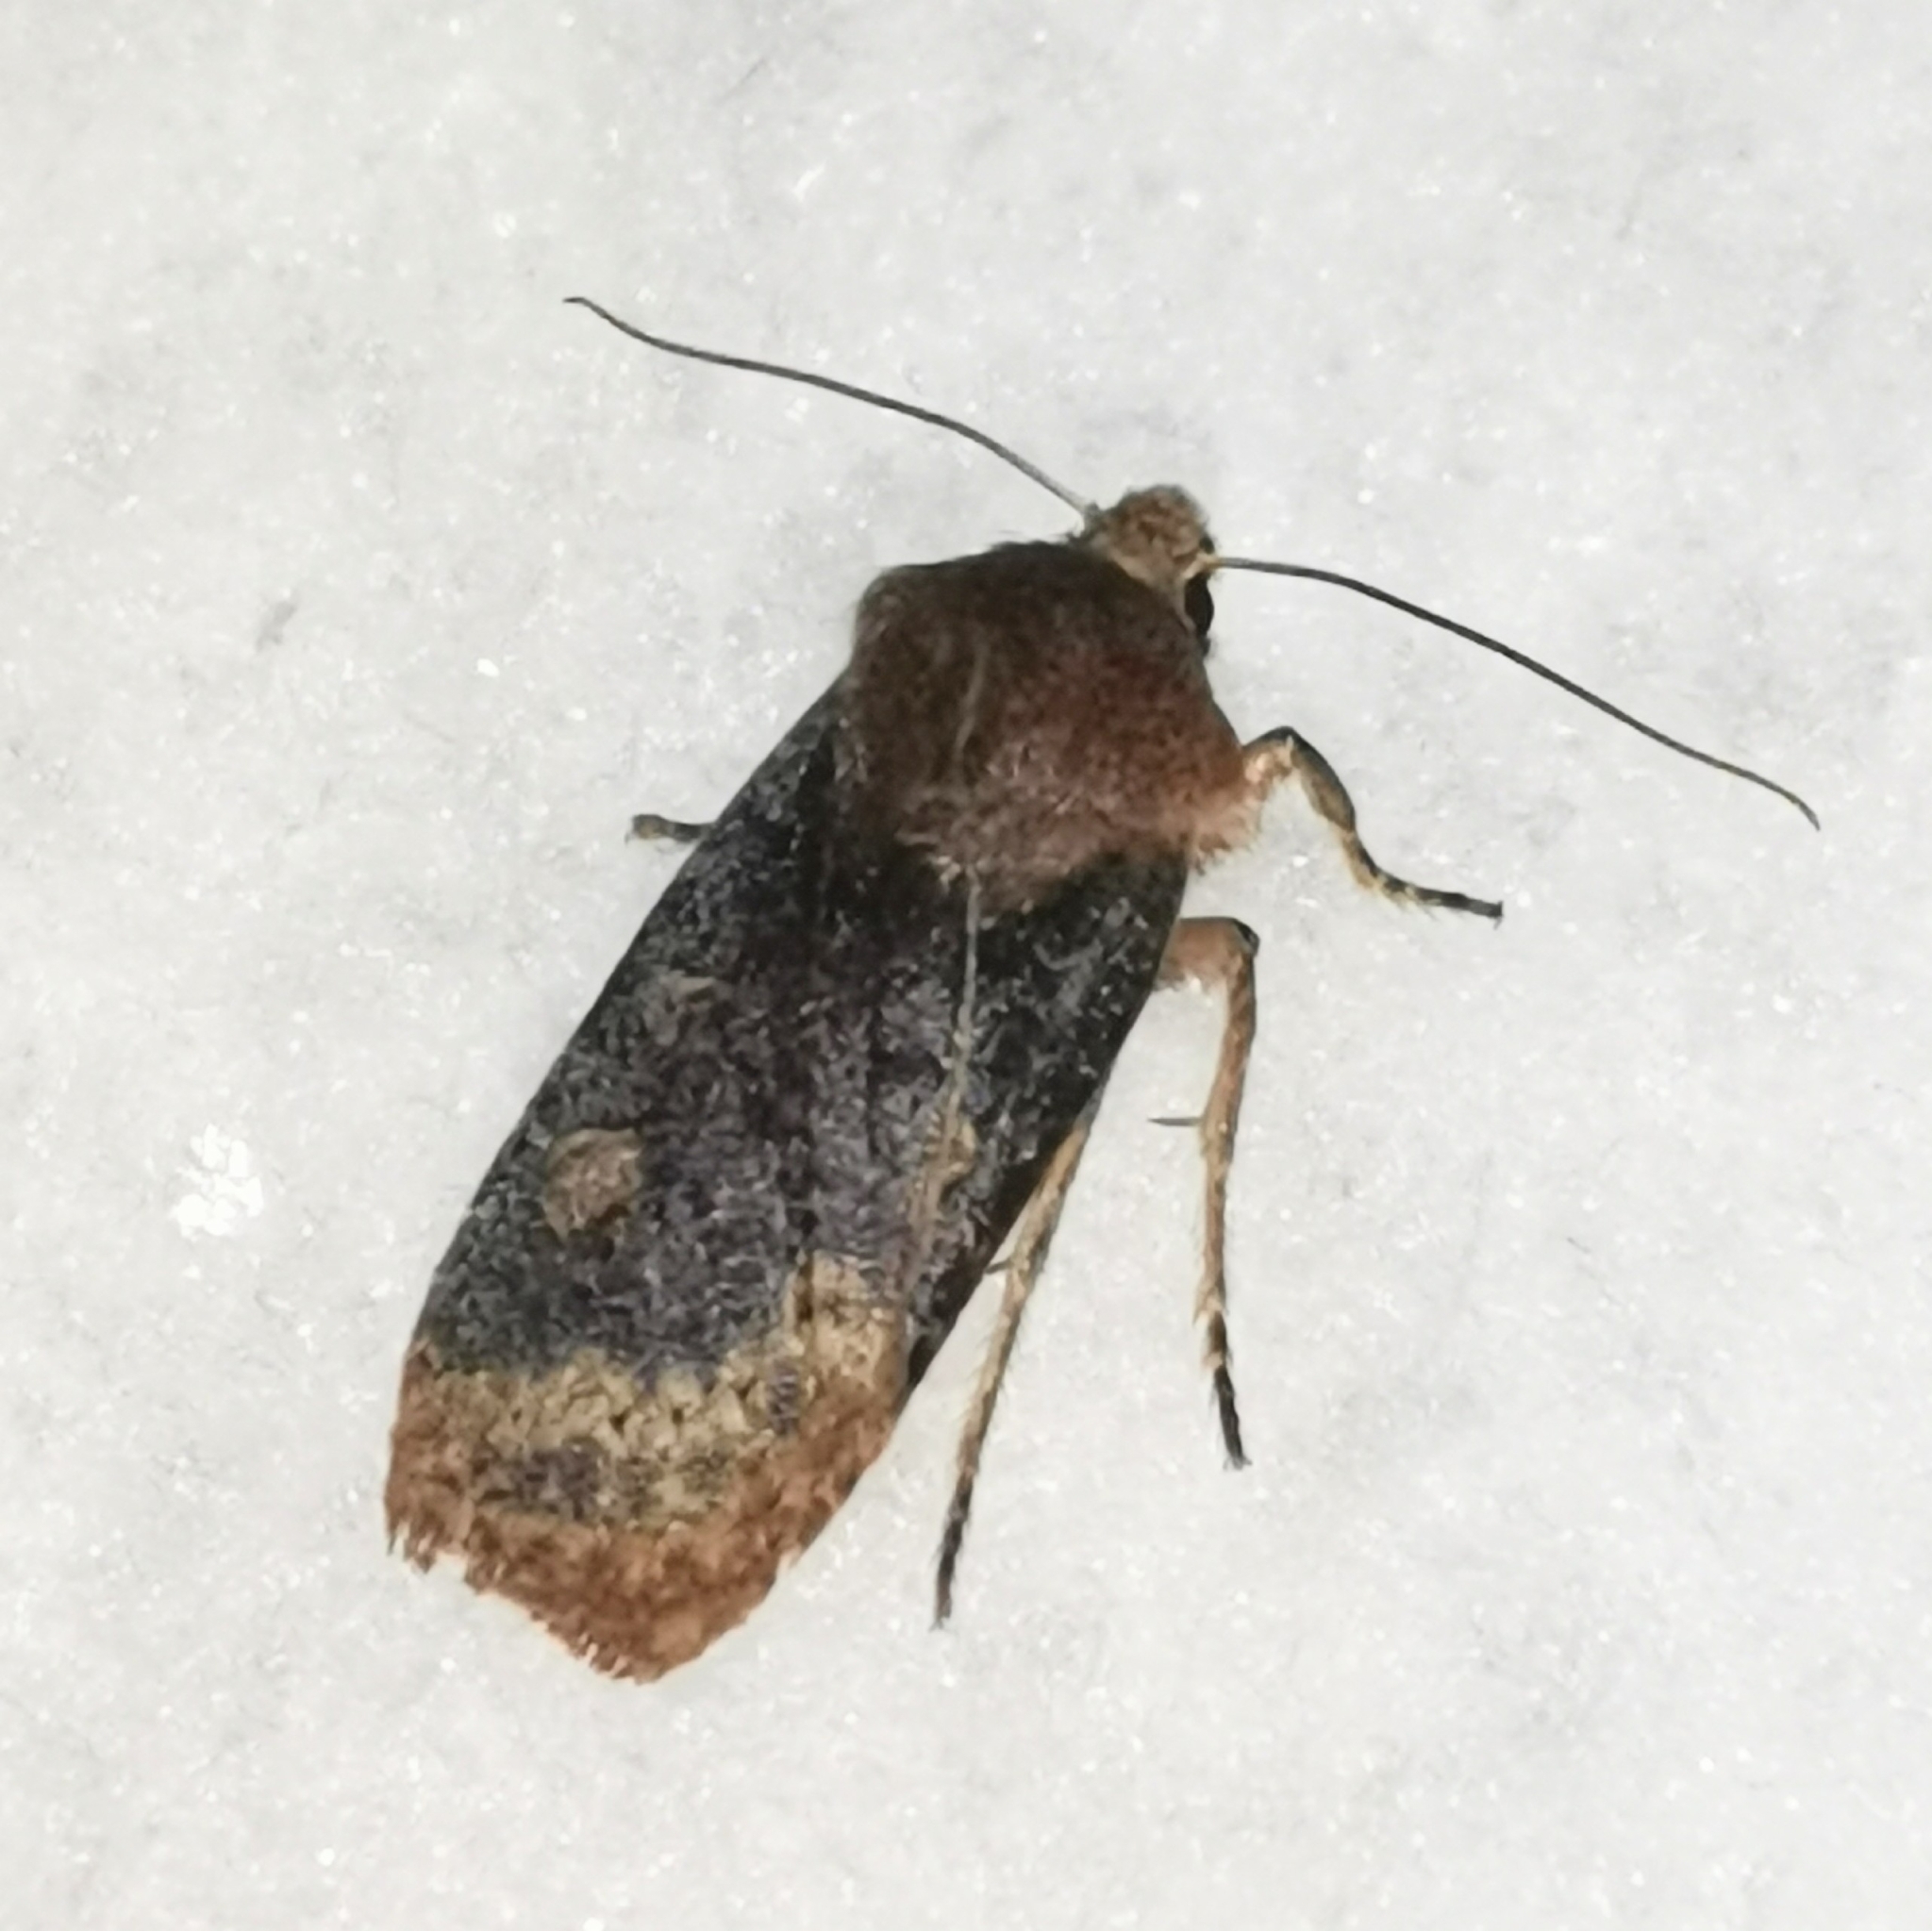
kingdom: Animalia
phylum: Arthropoda
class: Insecta
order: Lepidoptera
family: Noctuidae
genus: Conistra
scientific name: Conistra vaccinii
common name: Chestnut
